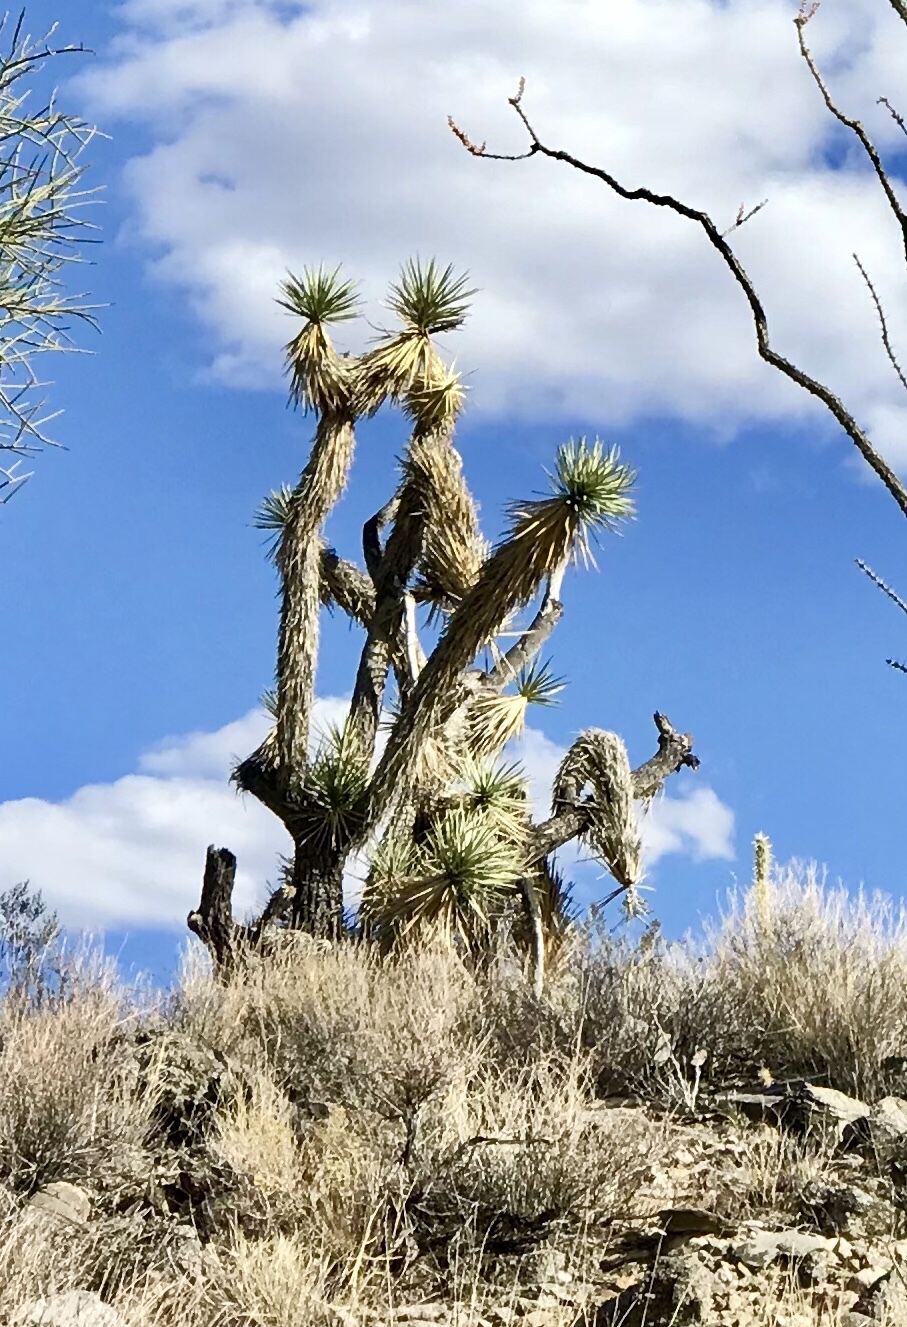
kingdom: Plantae
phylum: Tracheophyta
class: Liliopsida
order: Asparagales
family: Asparagaceae
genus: Yucca
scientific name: Yucca brevifolia
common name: Joshua tree
